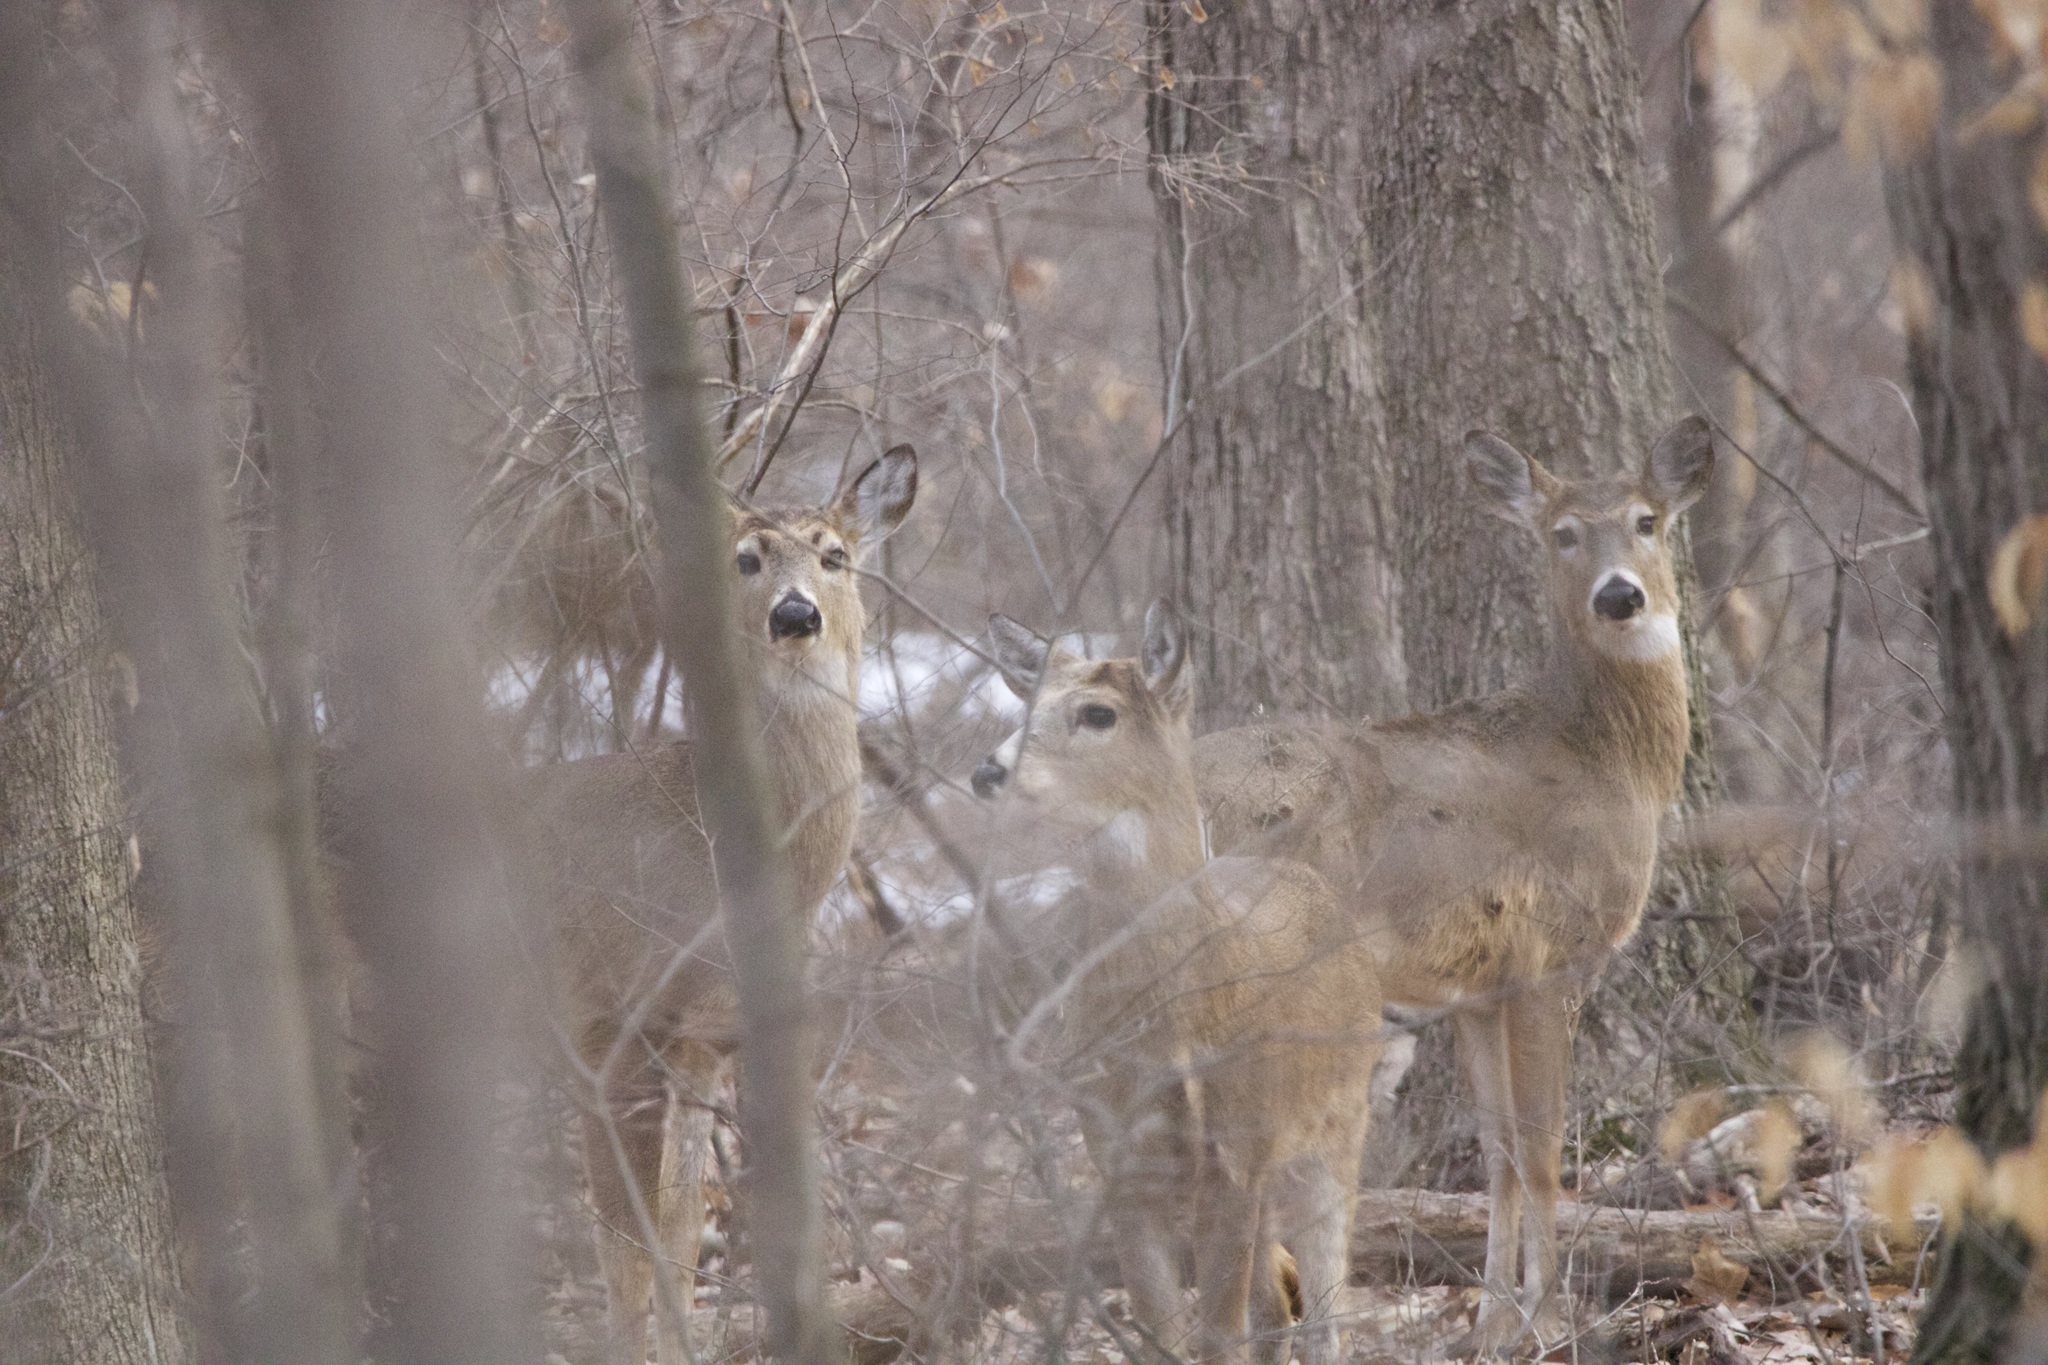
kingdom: Animalia
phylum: Chordata
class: Mammalia
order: Artiodactyla
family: Cervidae
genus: Odocoileus
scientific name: Odocoileus virginianus
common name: White-tailed deer
